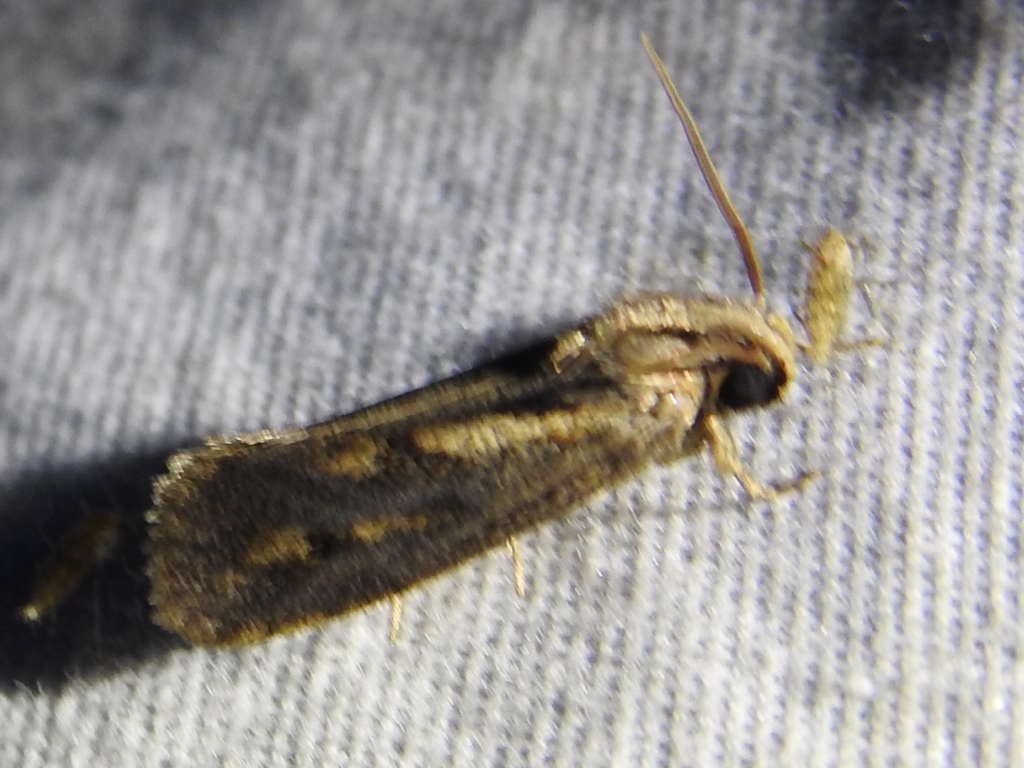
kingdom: Animalia
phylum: Arthropoda
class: Insecta
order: Lepidoptera
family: Tineidae
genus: Acrolophus
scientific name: Acrolophus popeanella
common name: Clemens' grass tubeworm moth
